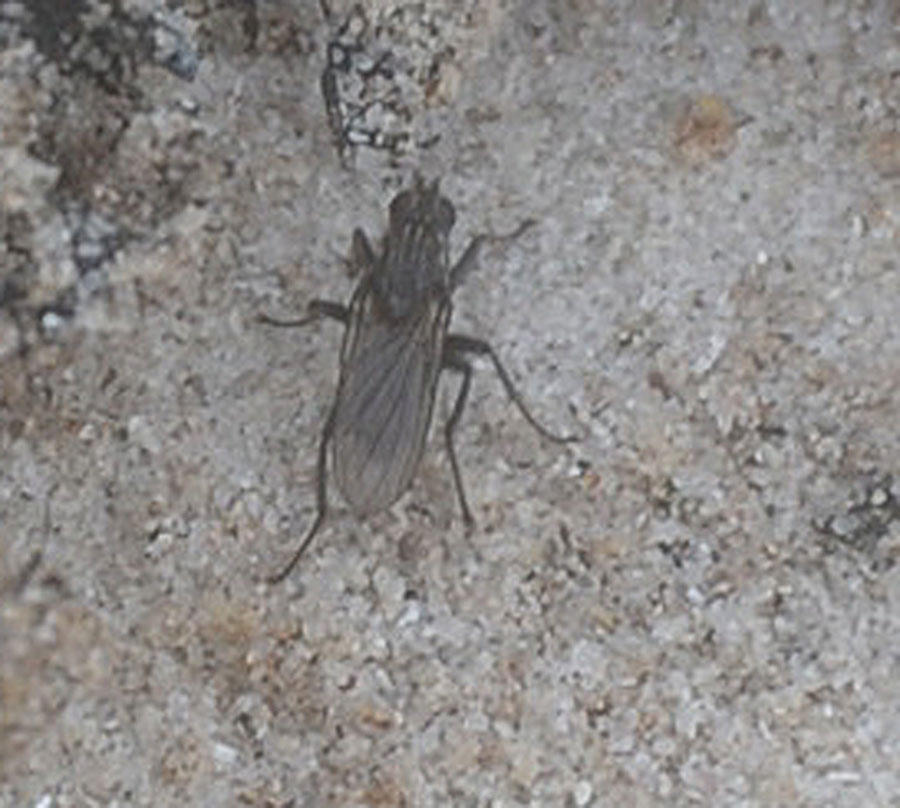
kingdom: Animalia
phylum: Arthropoda
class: Insecta
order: Diptera
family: Anthomyiidae
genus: Fucellia
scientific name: Fucellia capensis
